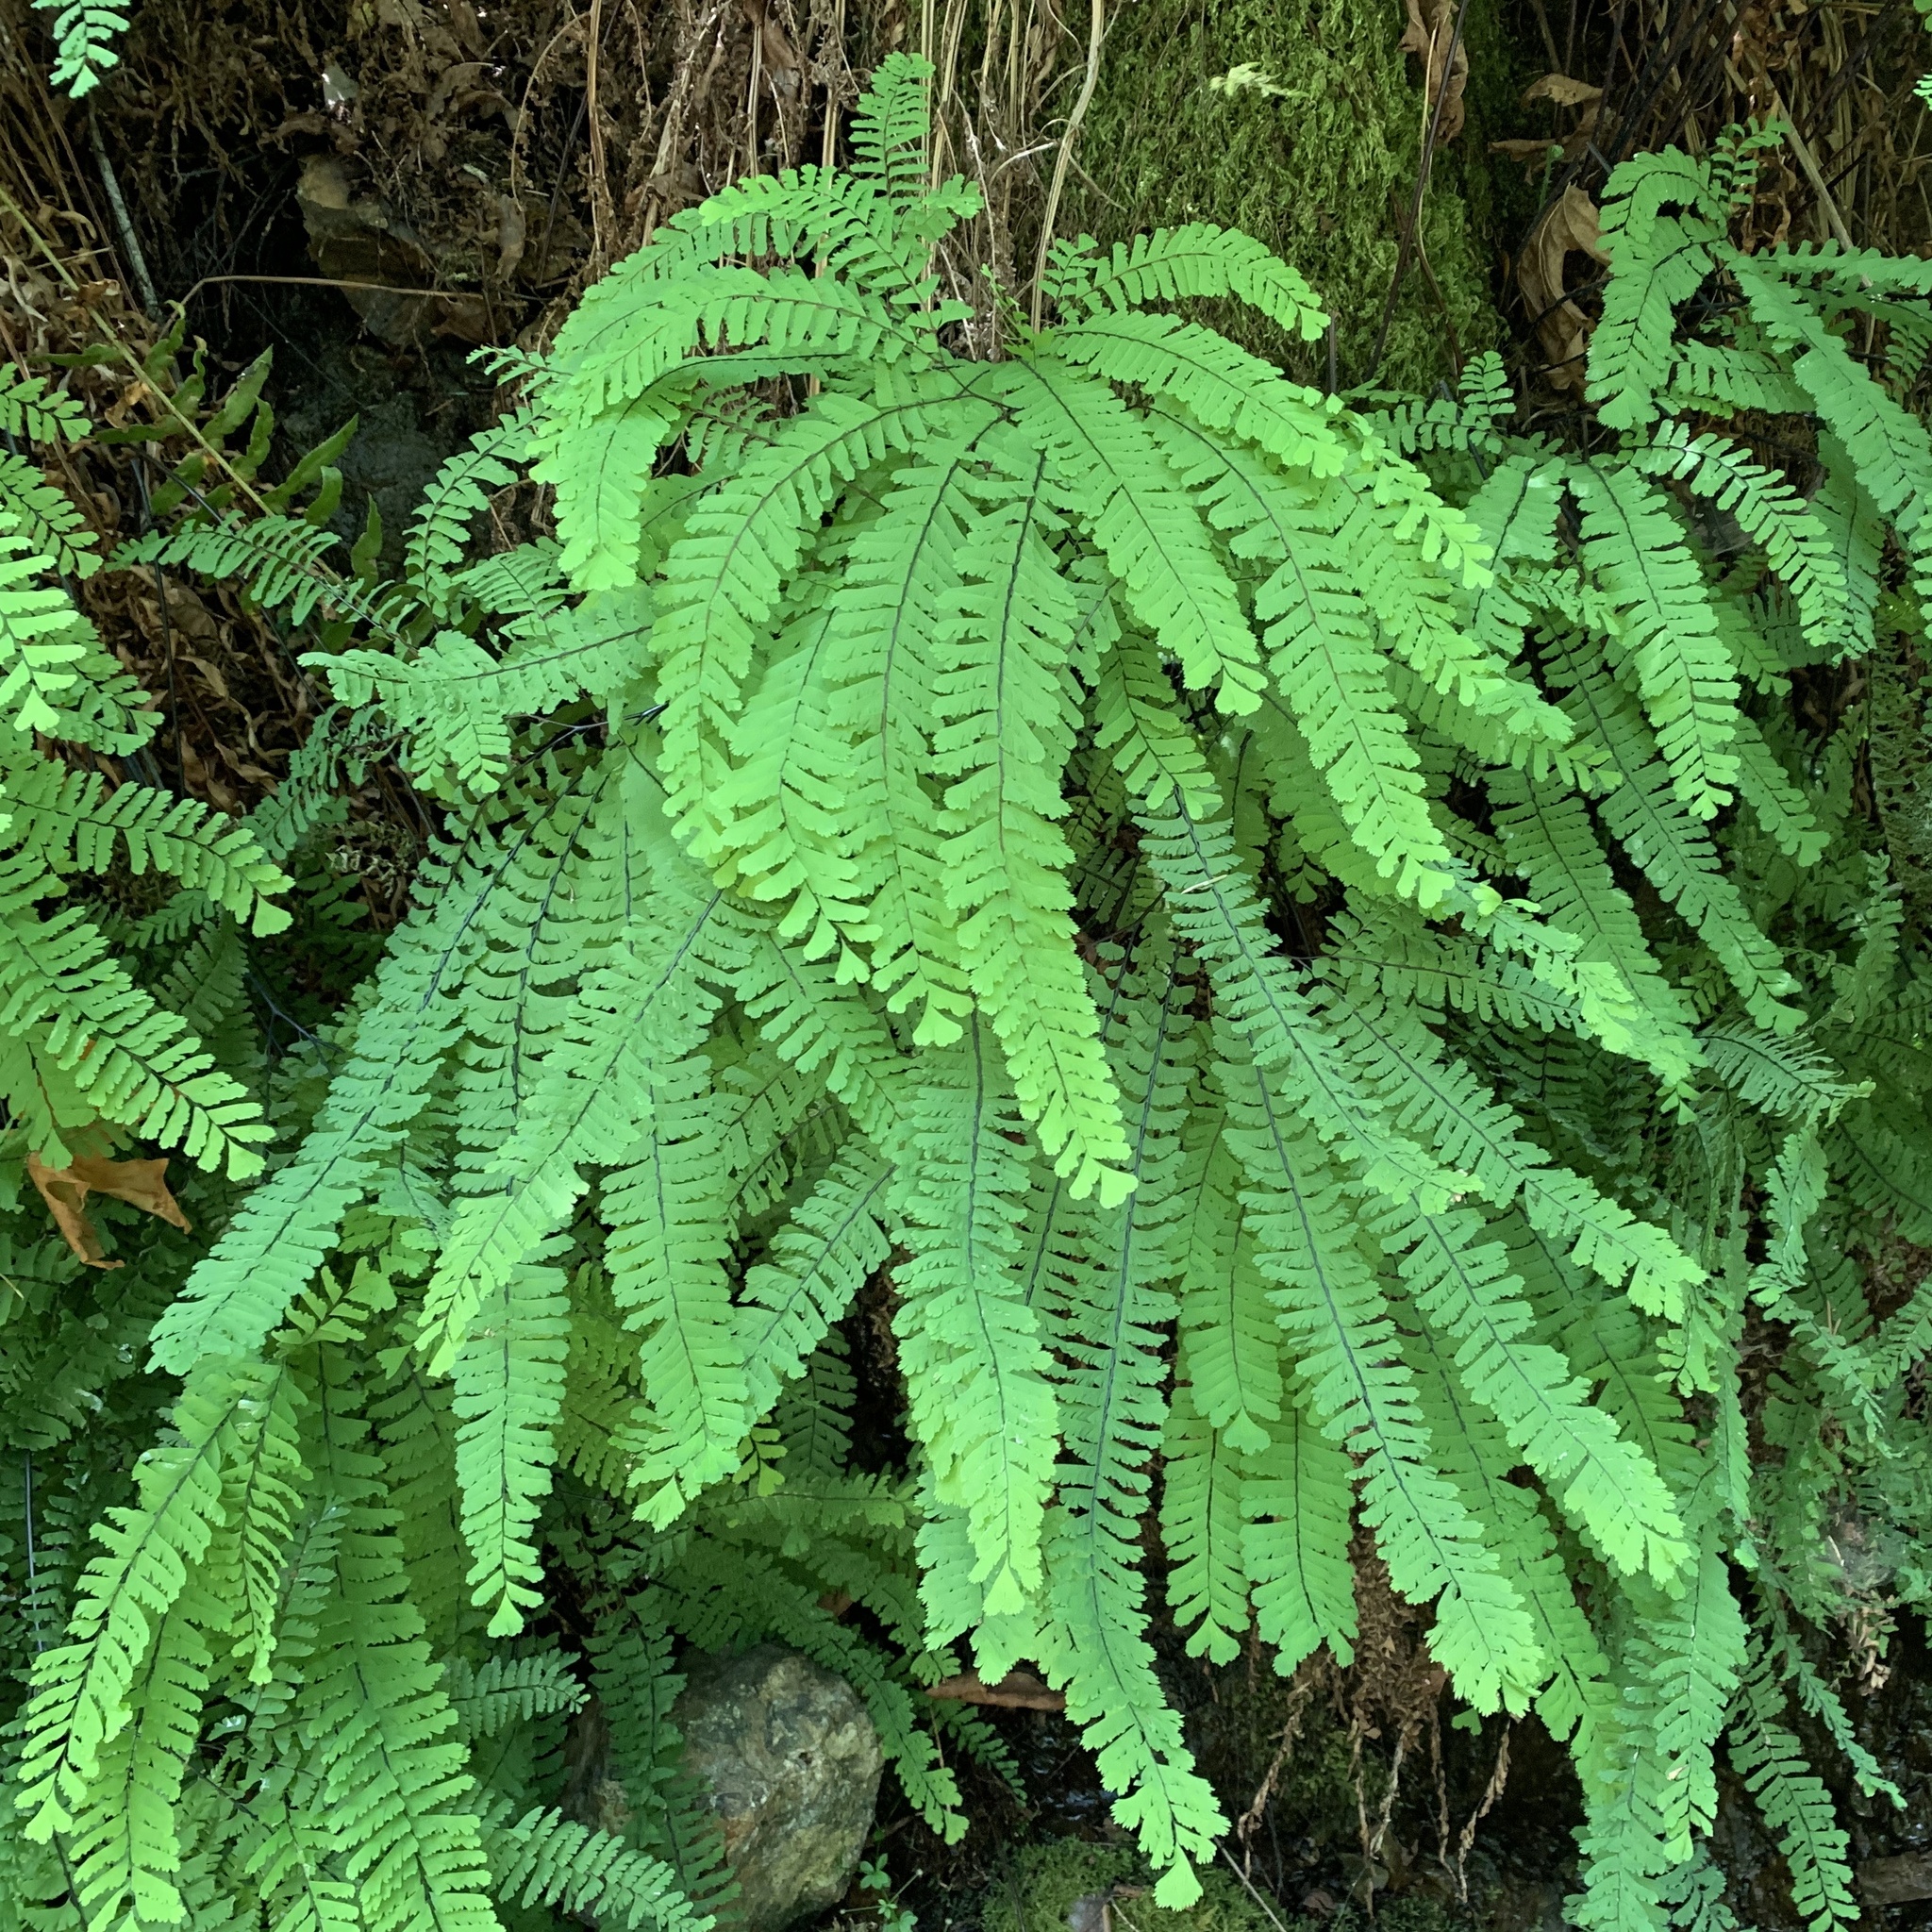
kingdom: Plantae
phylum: Tracheophyta
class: Polypodiopsida
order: Polypodiales
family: Pteridaceae
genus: Adiantum
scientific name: Adiantum aleuticum
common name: Aleutian maidenhair fern
